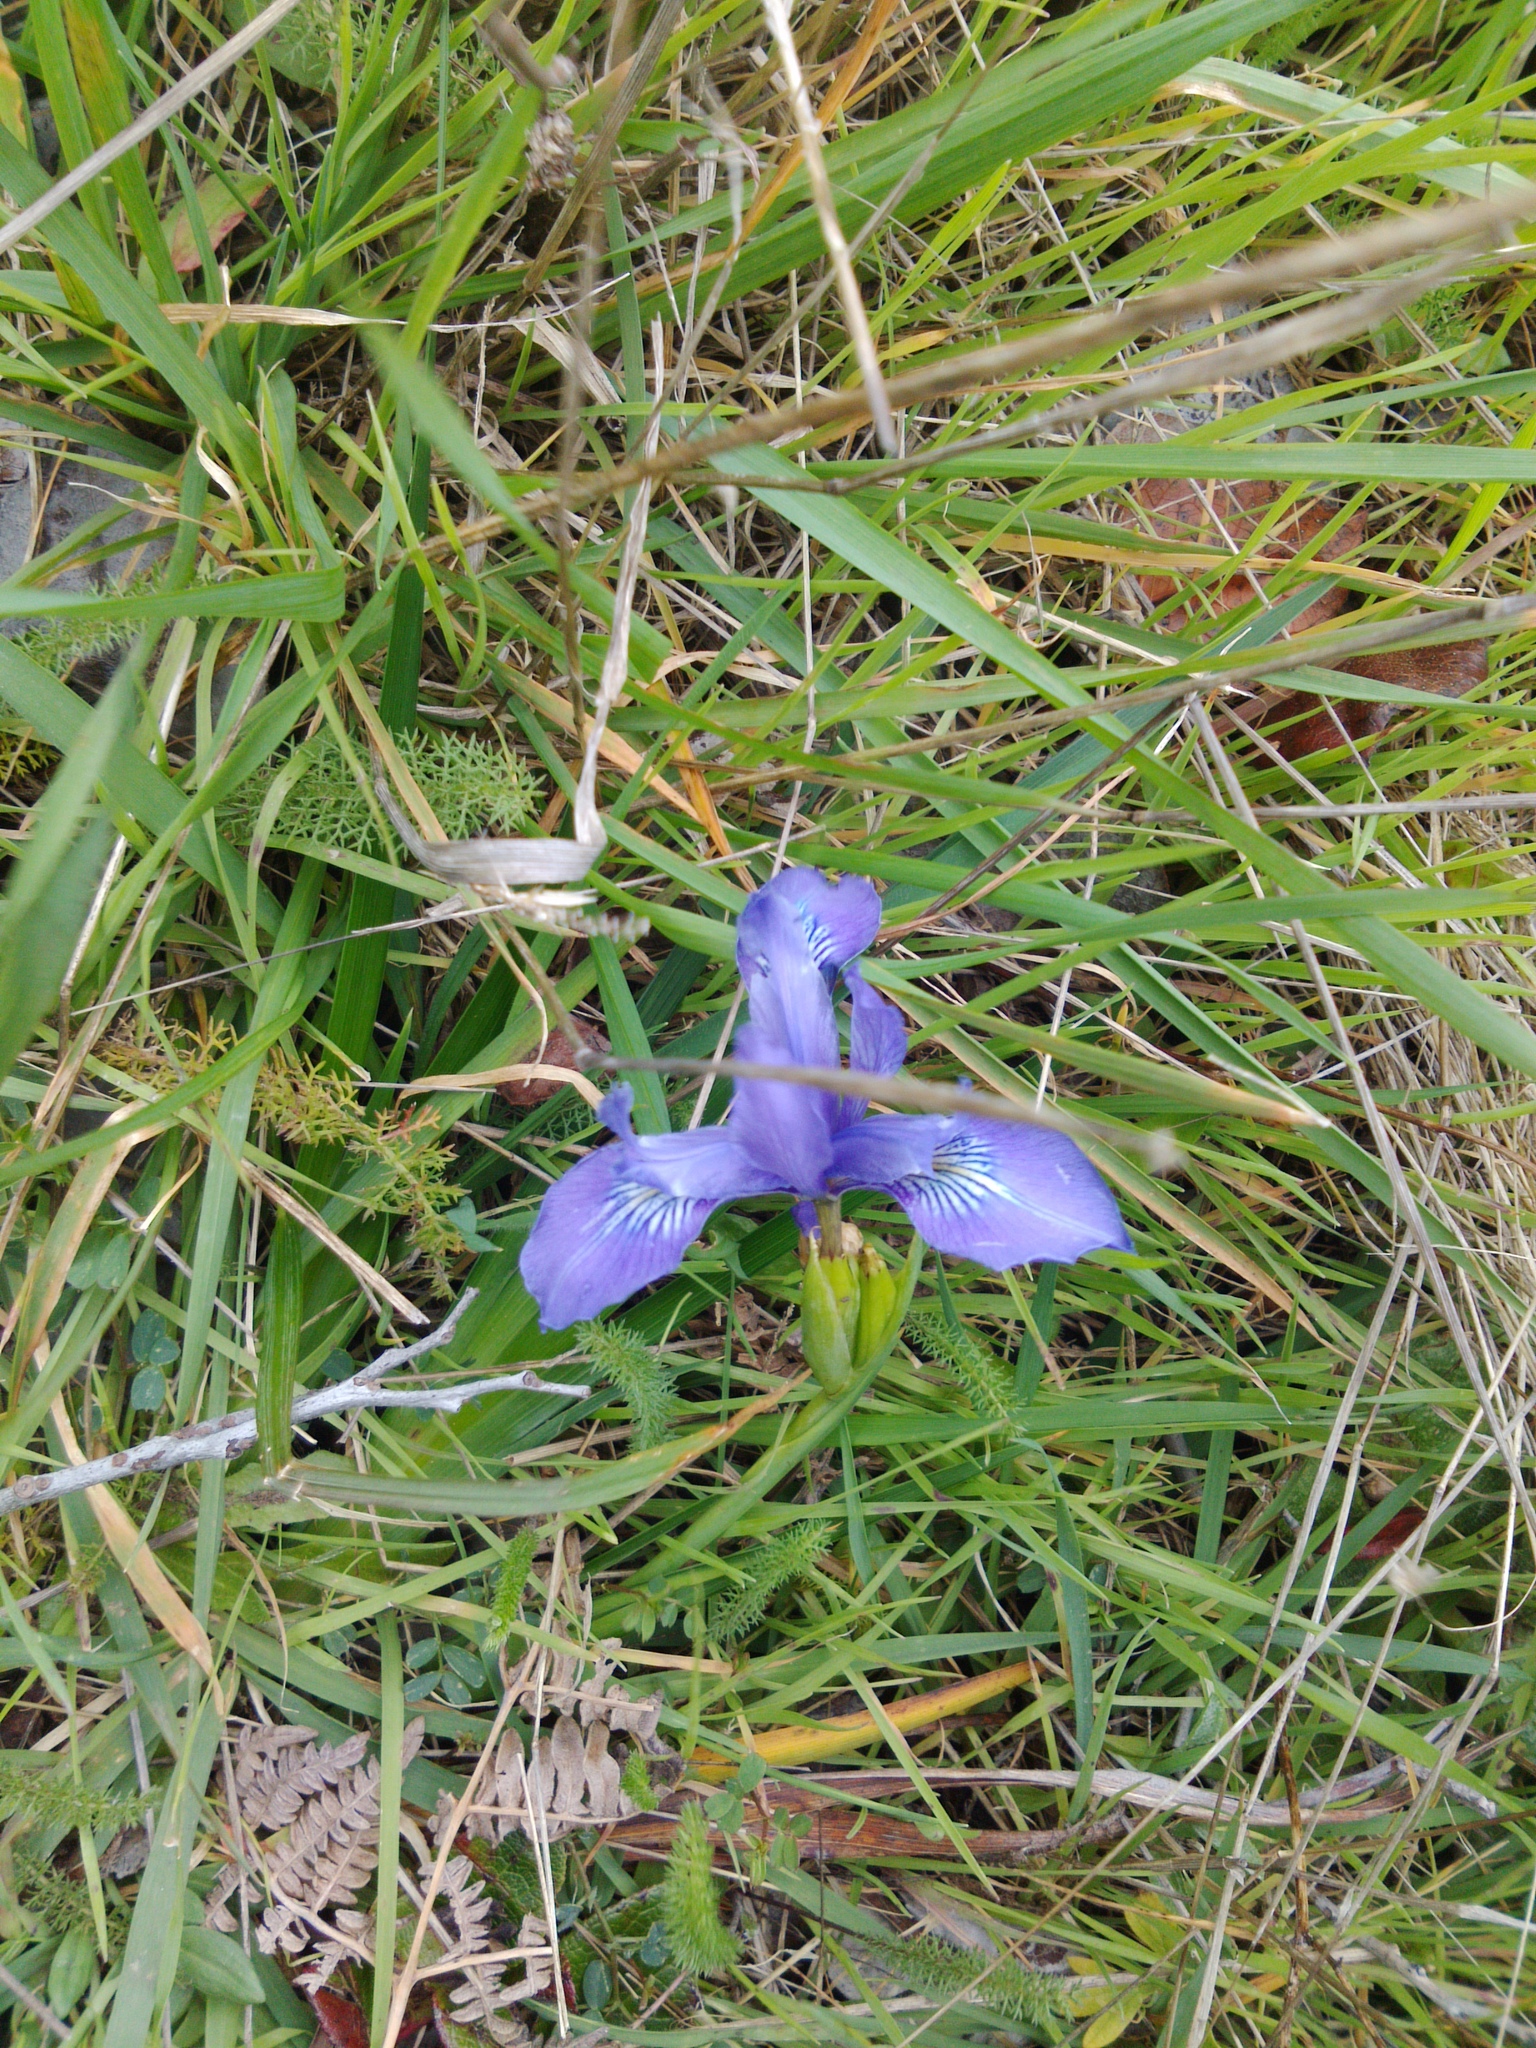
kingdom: Plantae
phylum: Tracheophyta
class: Liliopsida
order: Asparagales
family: Iridaceae
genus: Iris
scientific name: Iris douglasiana
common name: Marin iris
